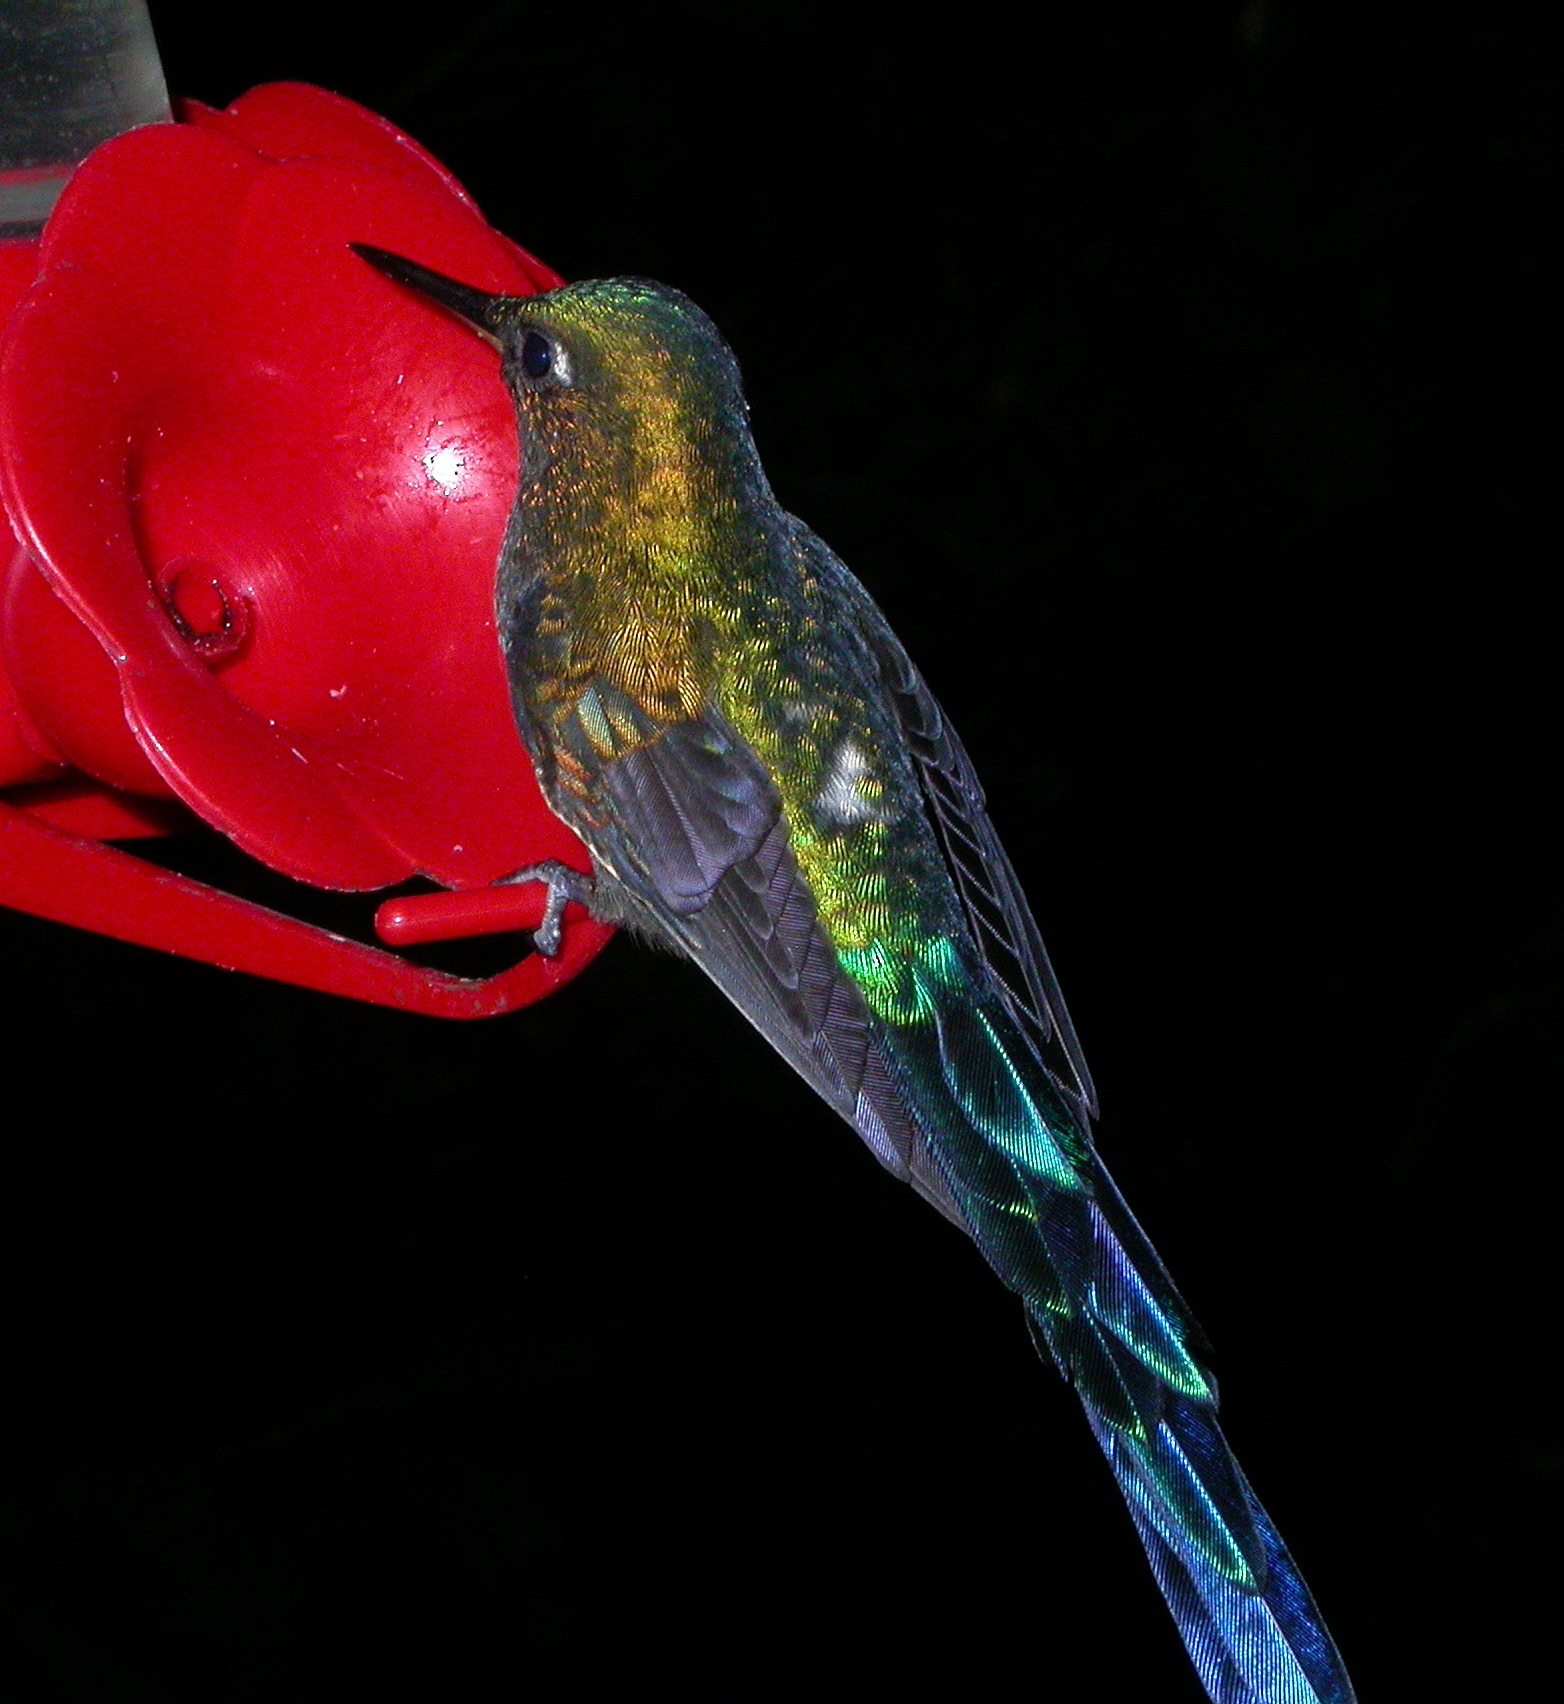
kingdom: Animalia
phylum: Chordata
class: Aves
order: Apodiformes
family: Trochilidae
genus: Aglaiocercus
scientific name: Aglaiocercus coelestis
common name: Violet-tailed sylph
